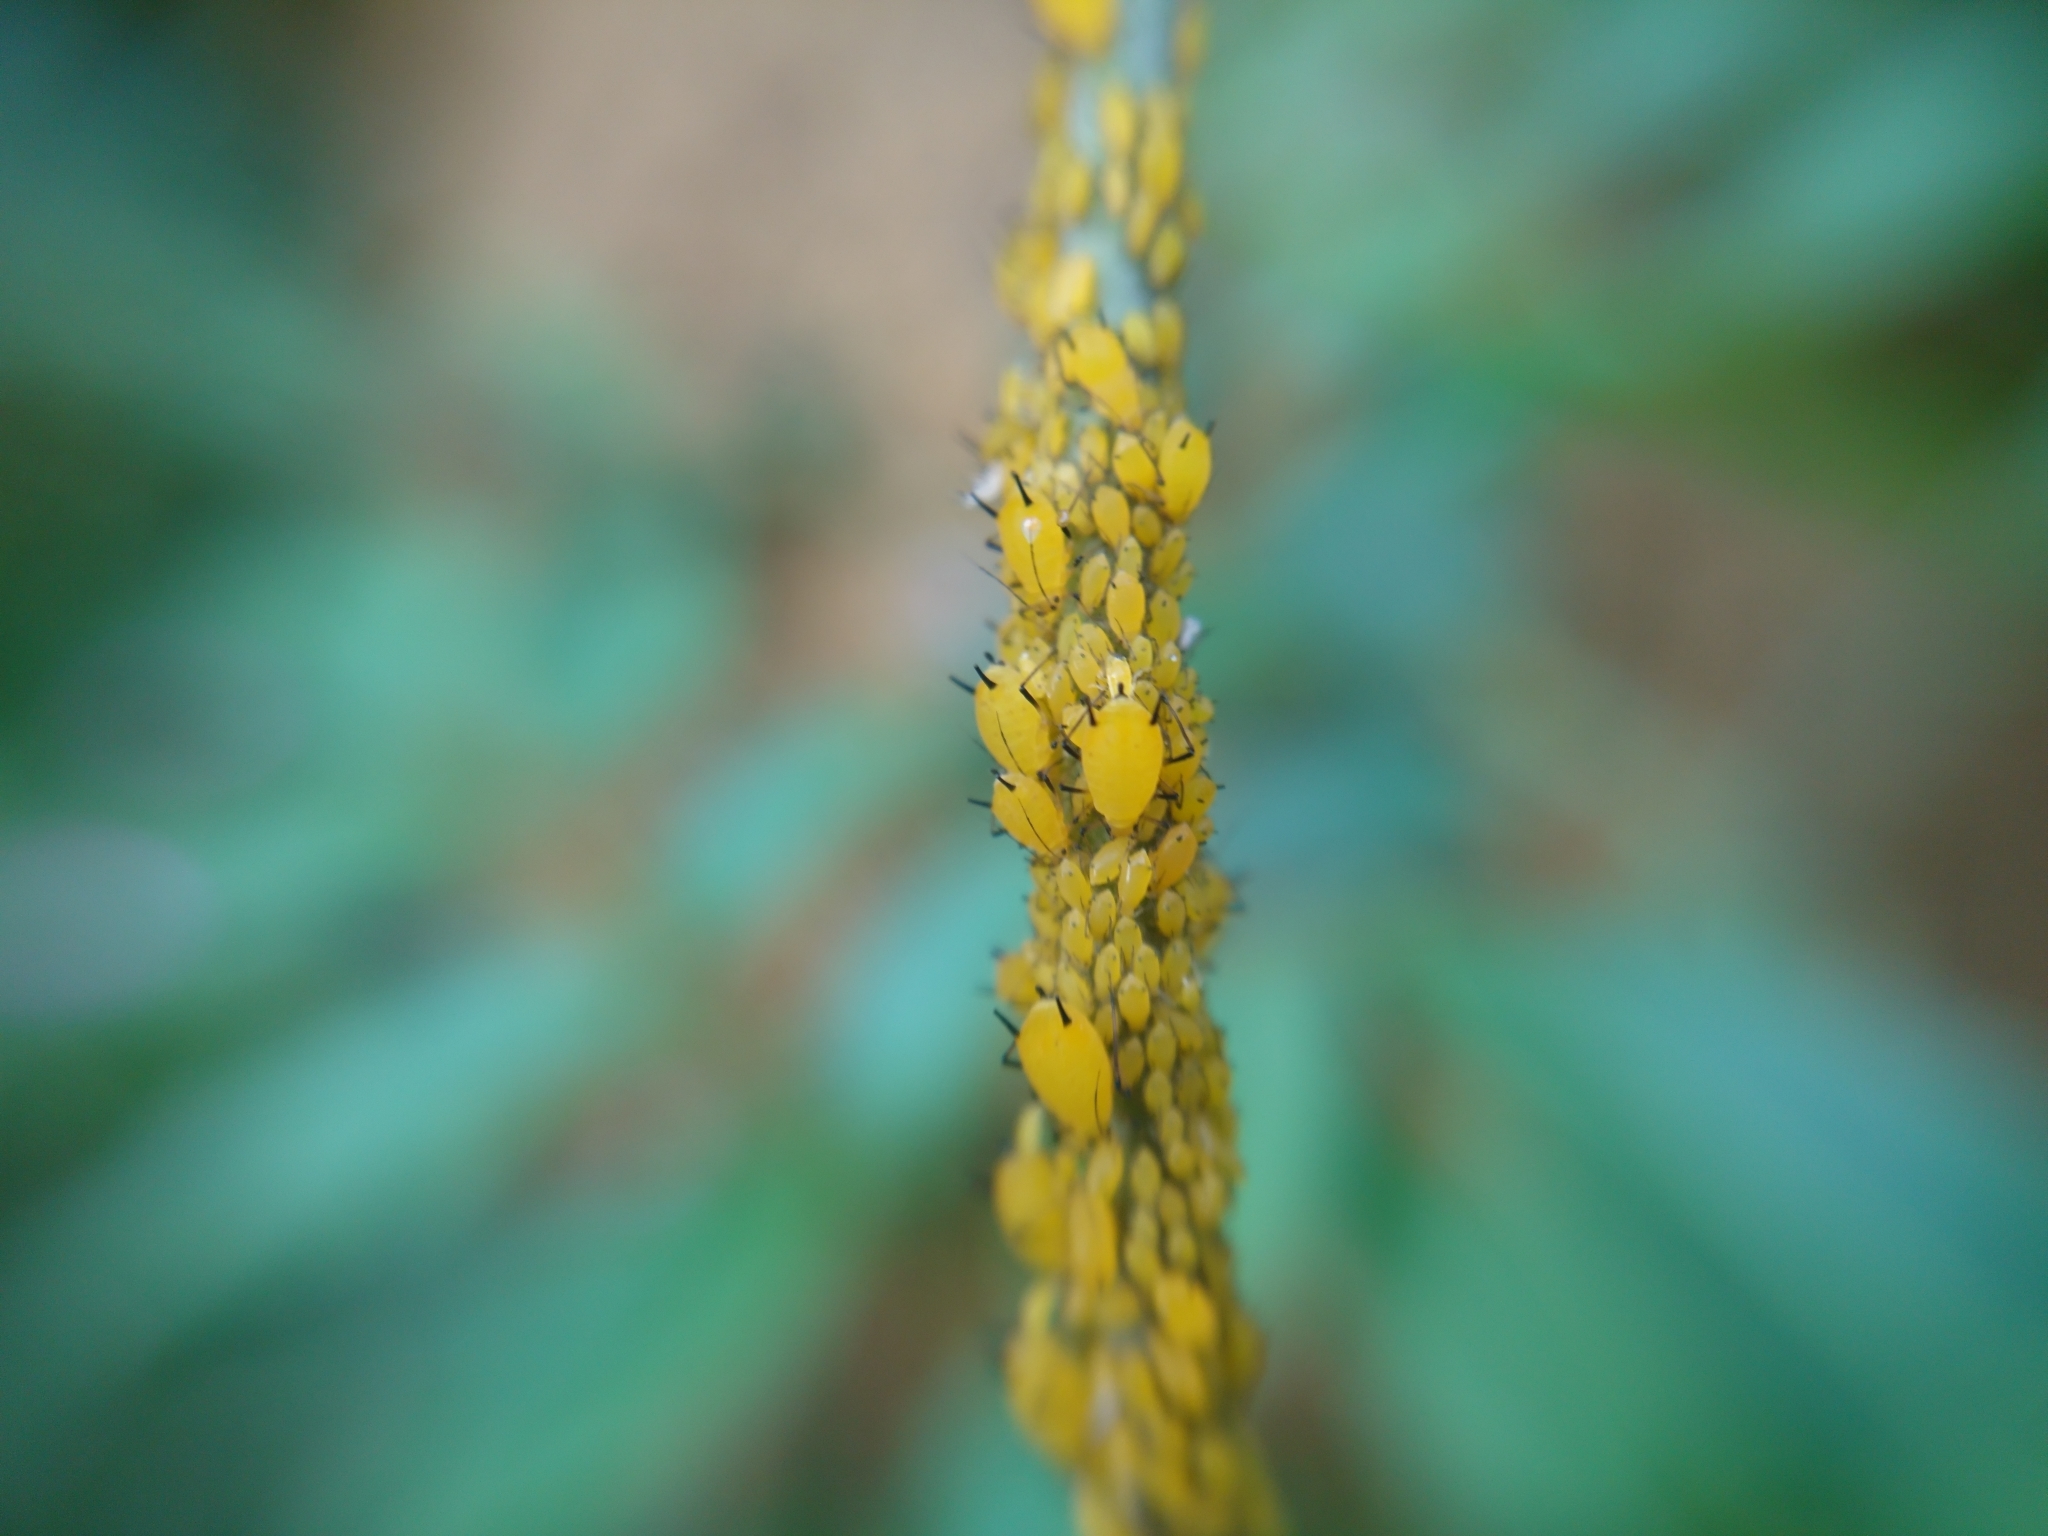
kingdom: Animalia
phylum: Arthropoda
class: Insecta
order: Hemiptera
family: Aphididae
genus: Aphis
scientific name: Aphis nerii
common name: Oleander aphid
